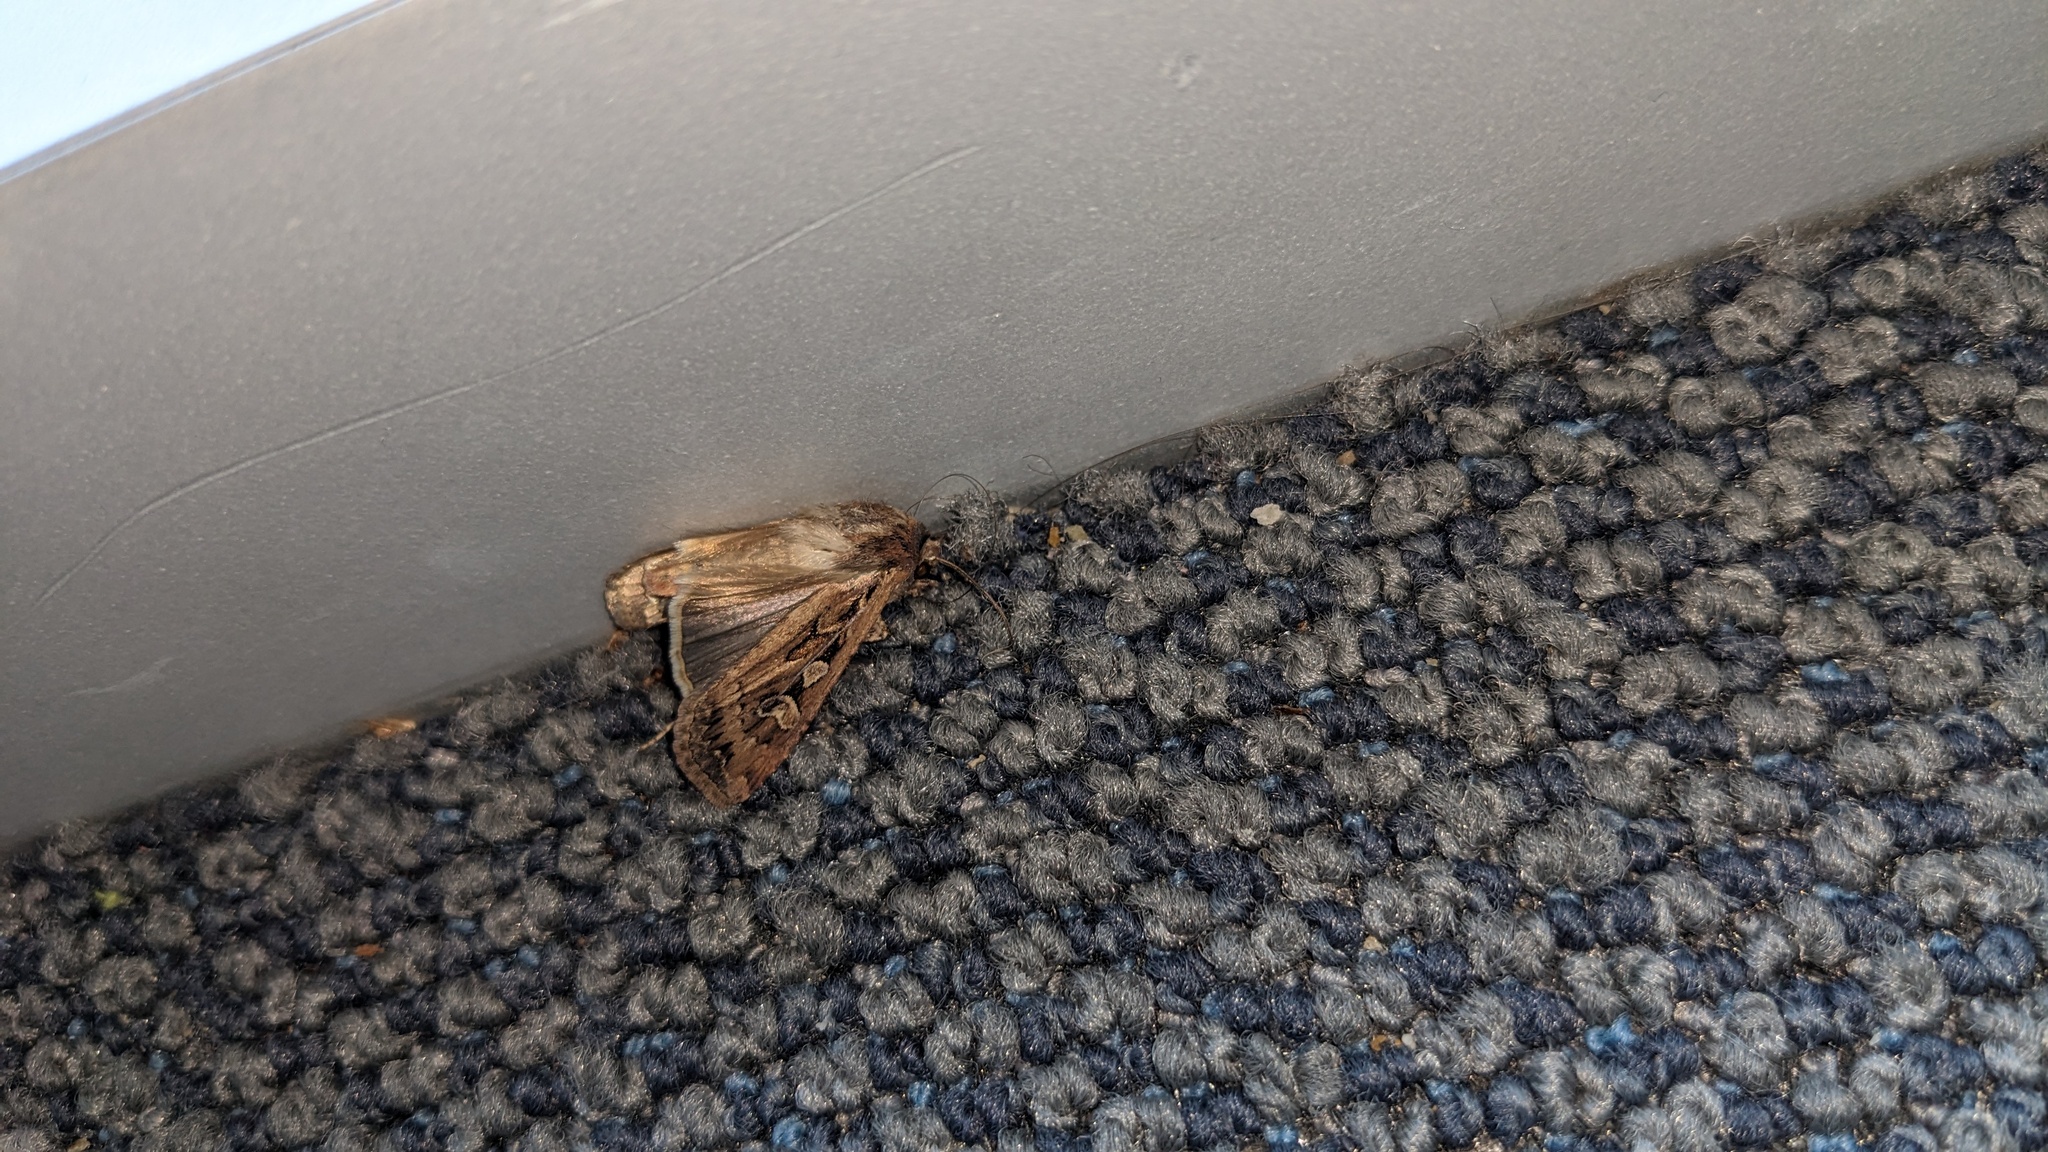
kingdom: Animalia
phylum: Arthropoda
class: Insecta
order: Lepidoptera
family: Noctuidae
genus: Euxoa
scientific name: Euxoa auxiliaris
